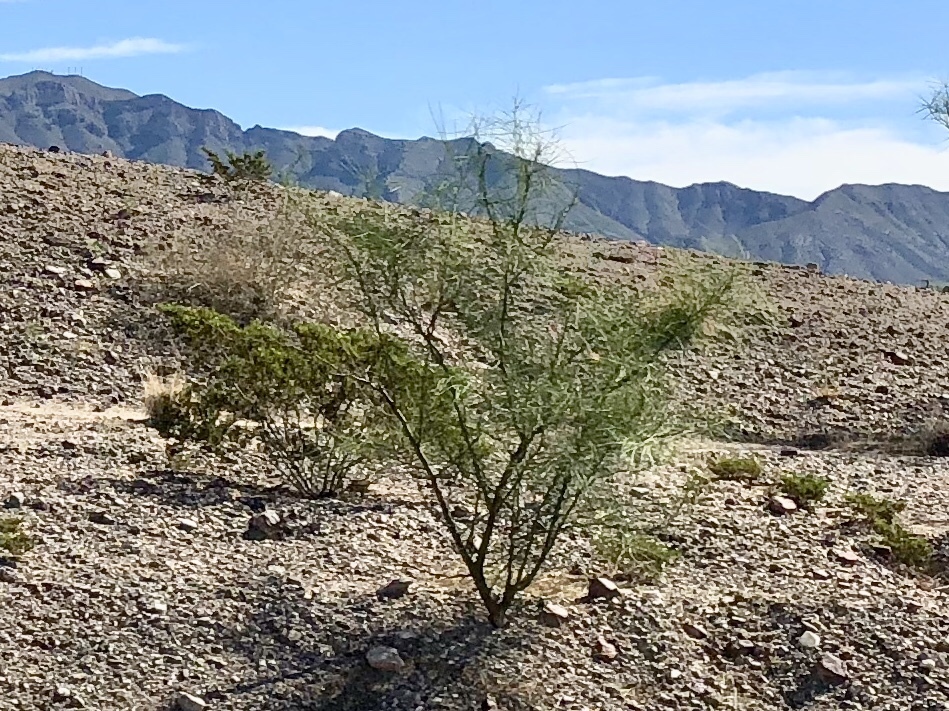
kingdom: Plantae
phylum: Tracheophyta
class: Magnoliopsida
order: Fabales
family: Fabaceae
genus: Parkinsonia
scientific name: Parkinsonia aculeata
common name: Jerusalem thorn
